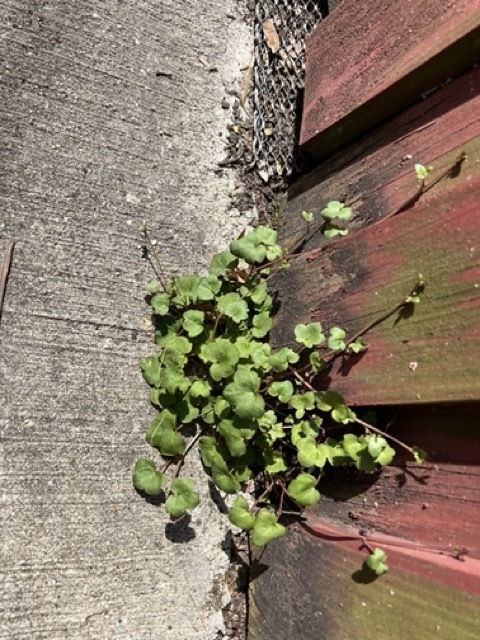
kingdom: Plantae
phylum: Tracheophyta
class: Magnoliopsida
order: Lamiales
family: Plantaginaceae
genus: Cymbalaria
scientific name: Cymbalaria muralis
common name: Ivy-leaved toadflax
